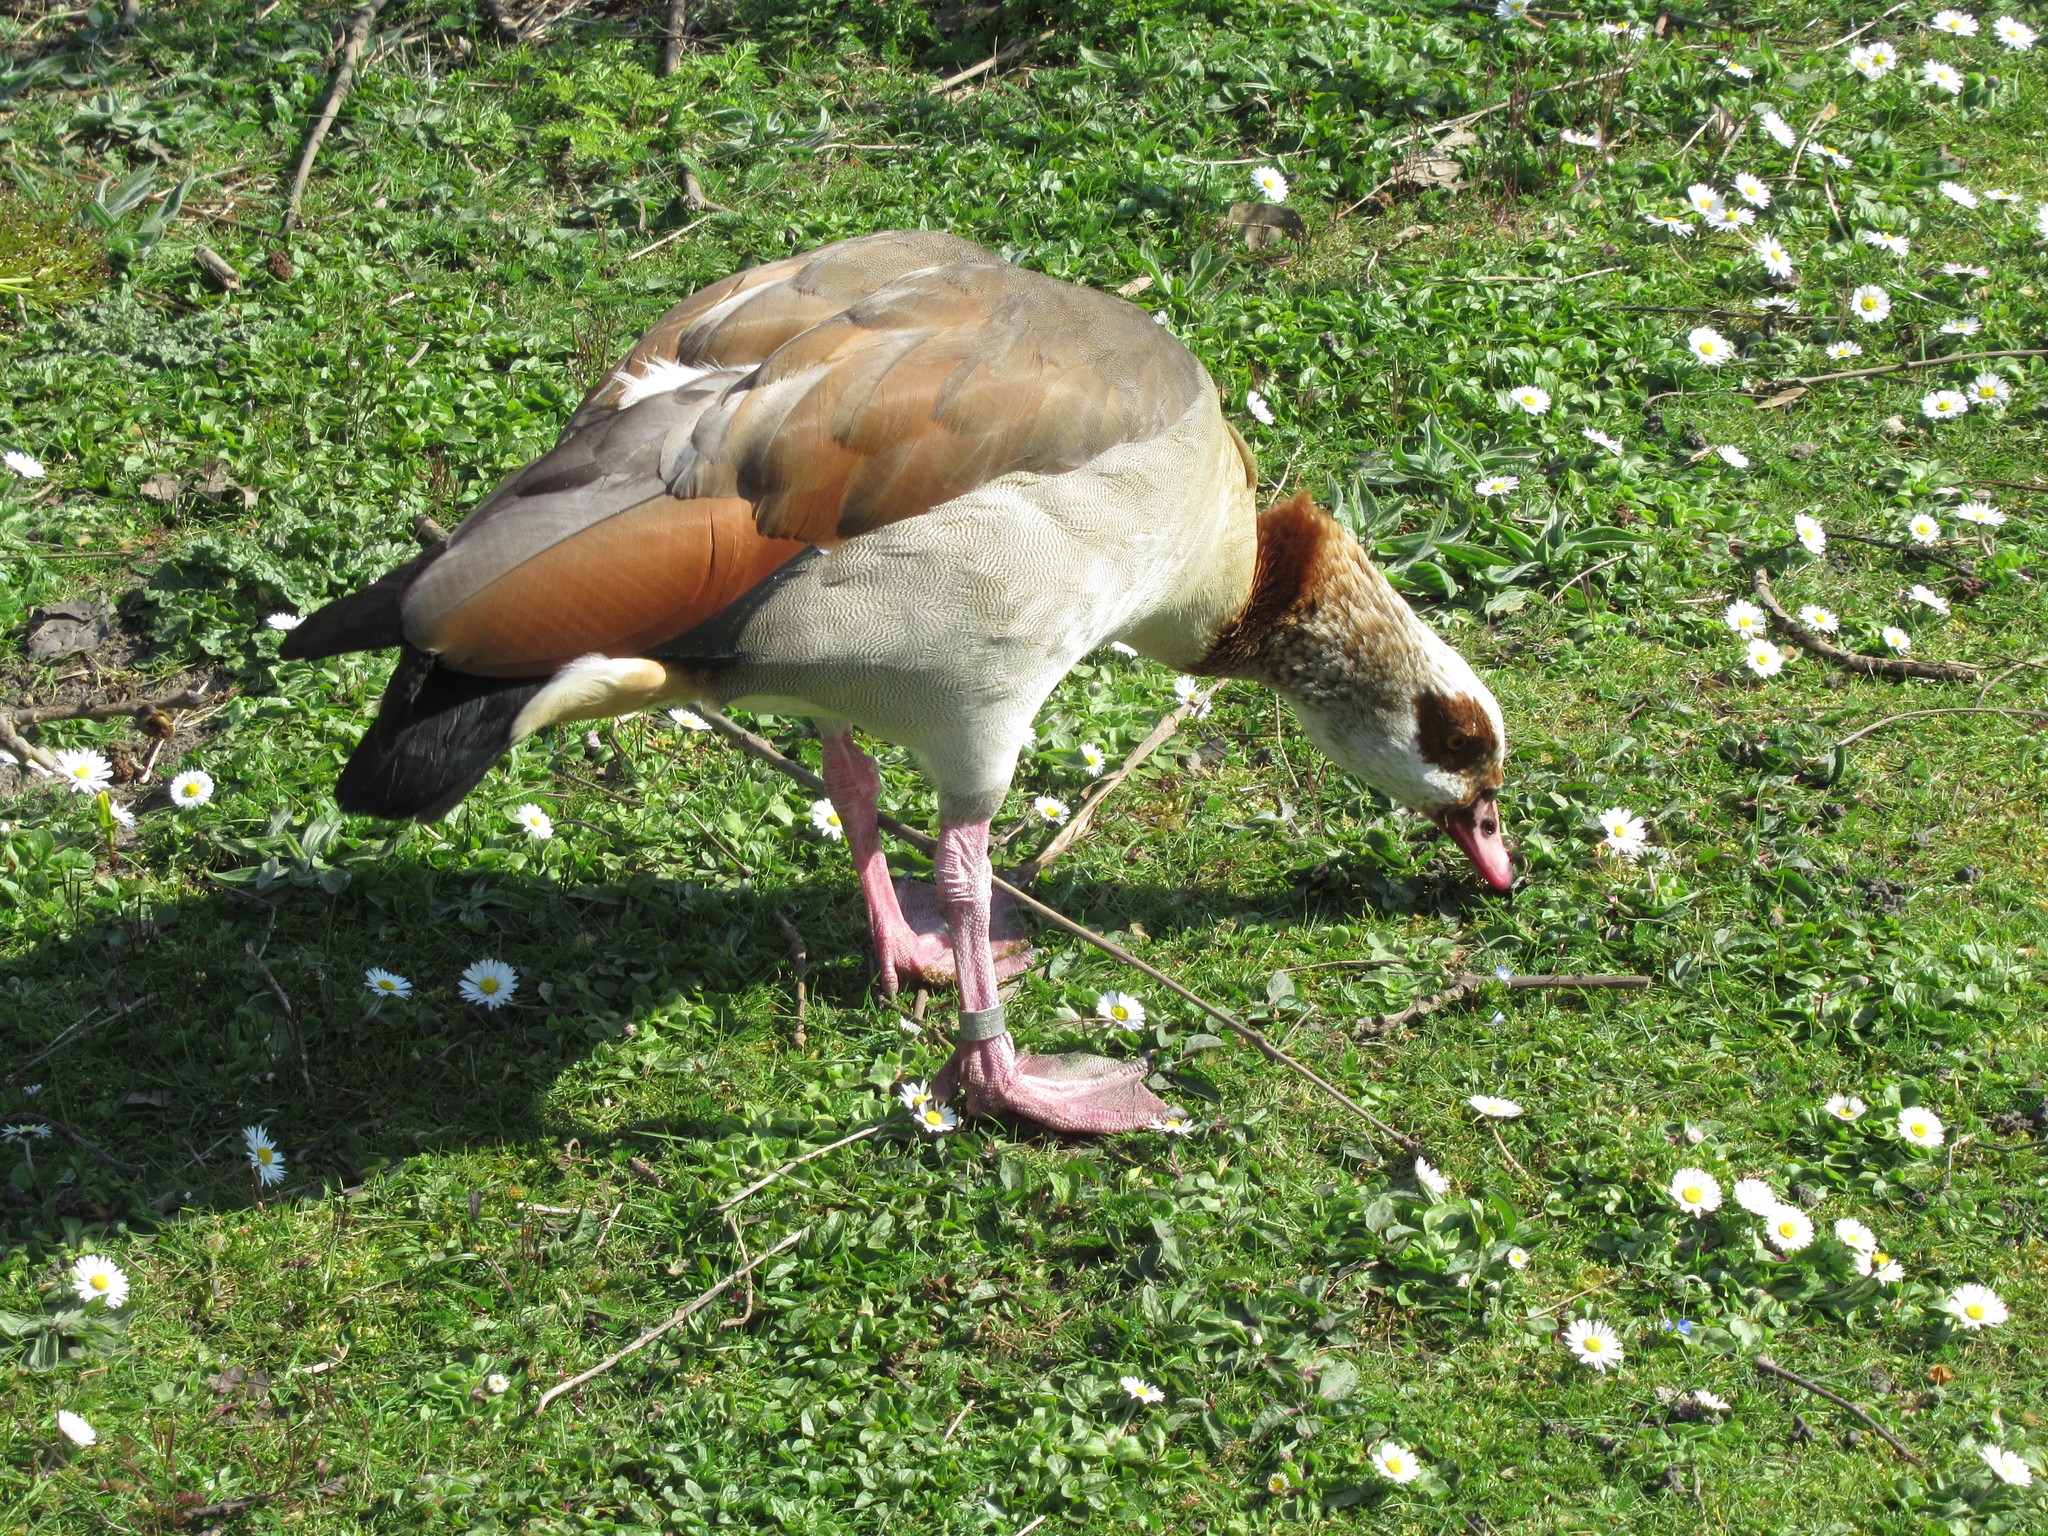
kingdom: Animalia
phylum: Chordata
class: Aves
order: Anseriformes
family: Anatidae
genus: Alopochen
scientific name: Alopochen aegyptiaca
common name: Egyptian goose
